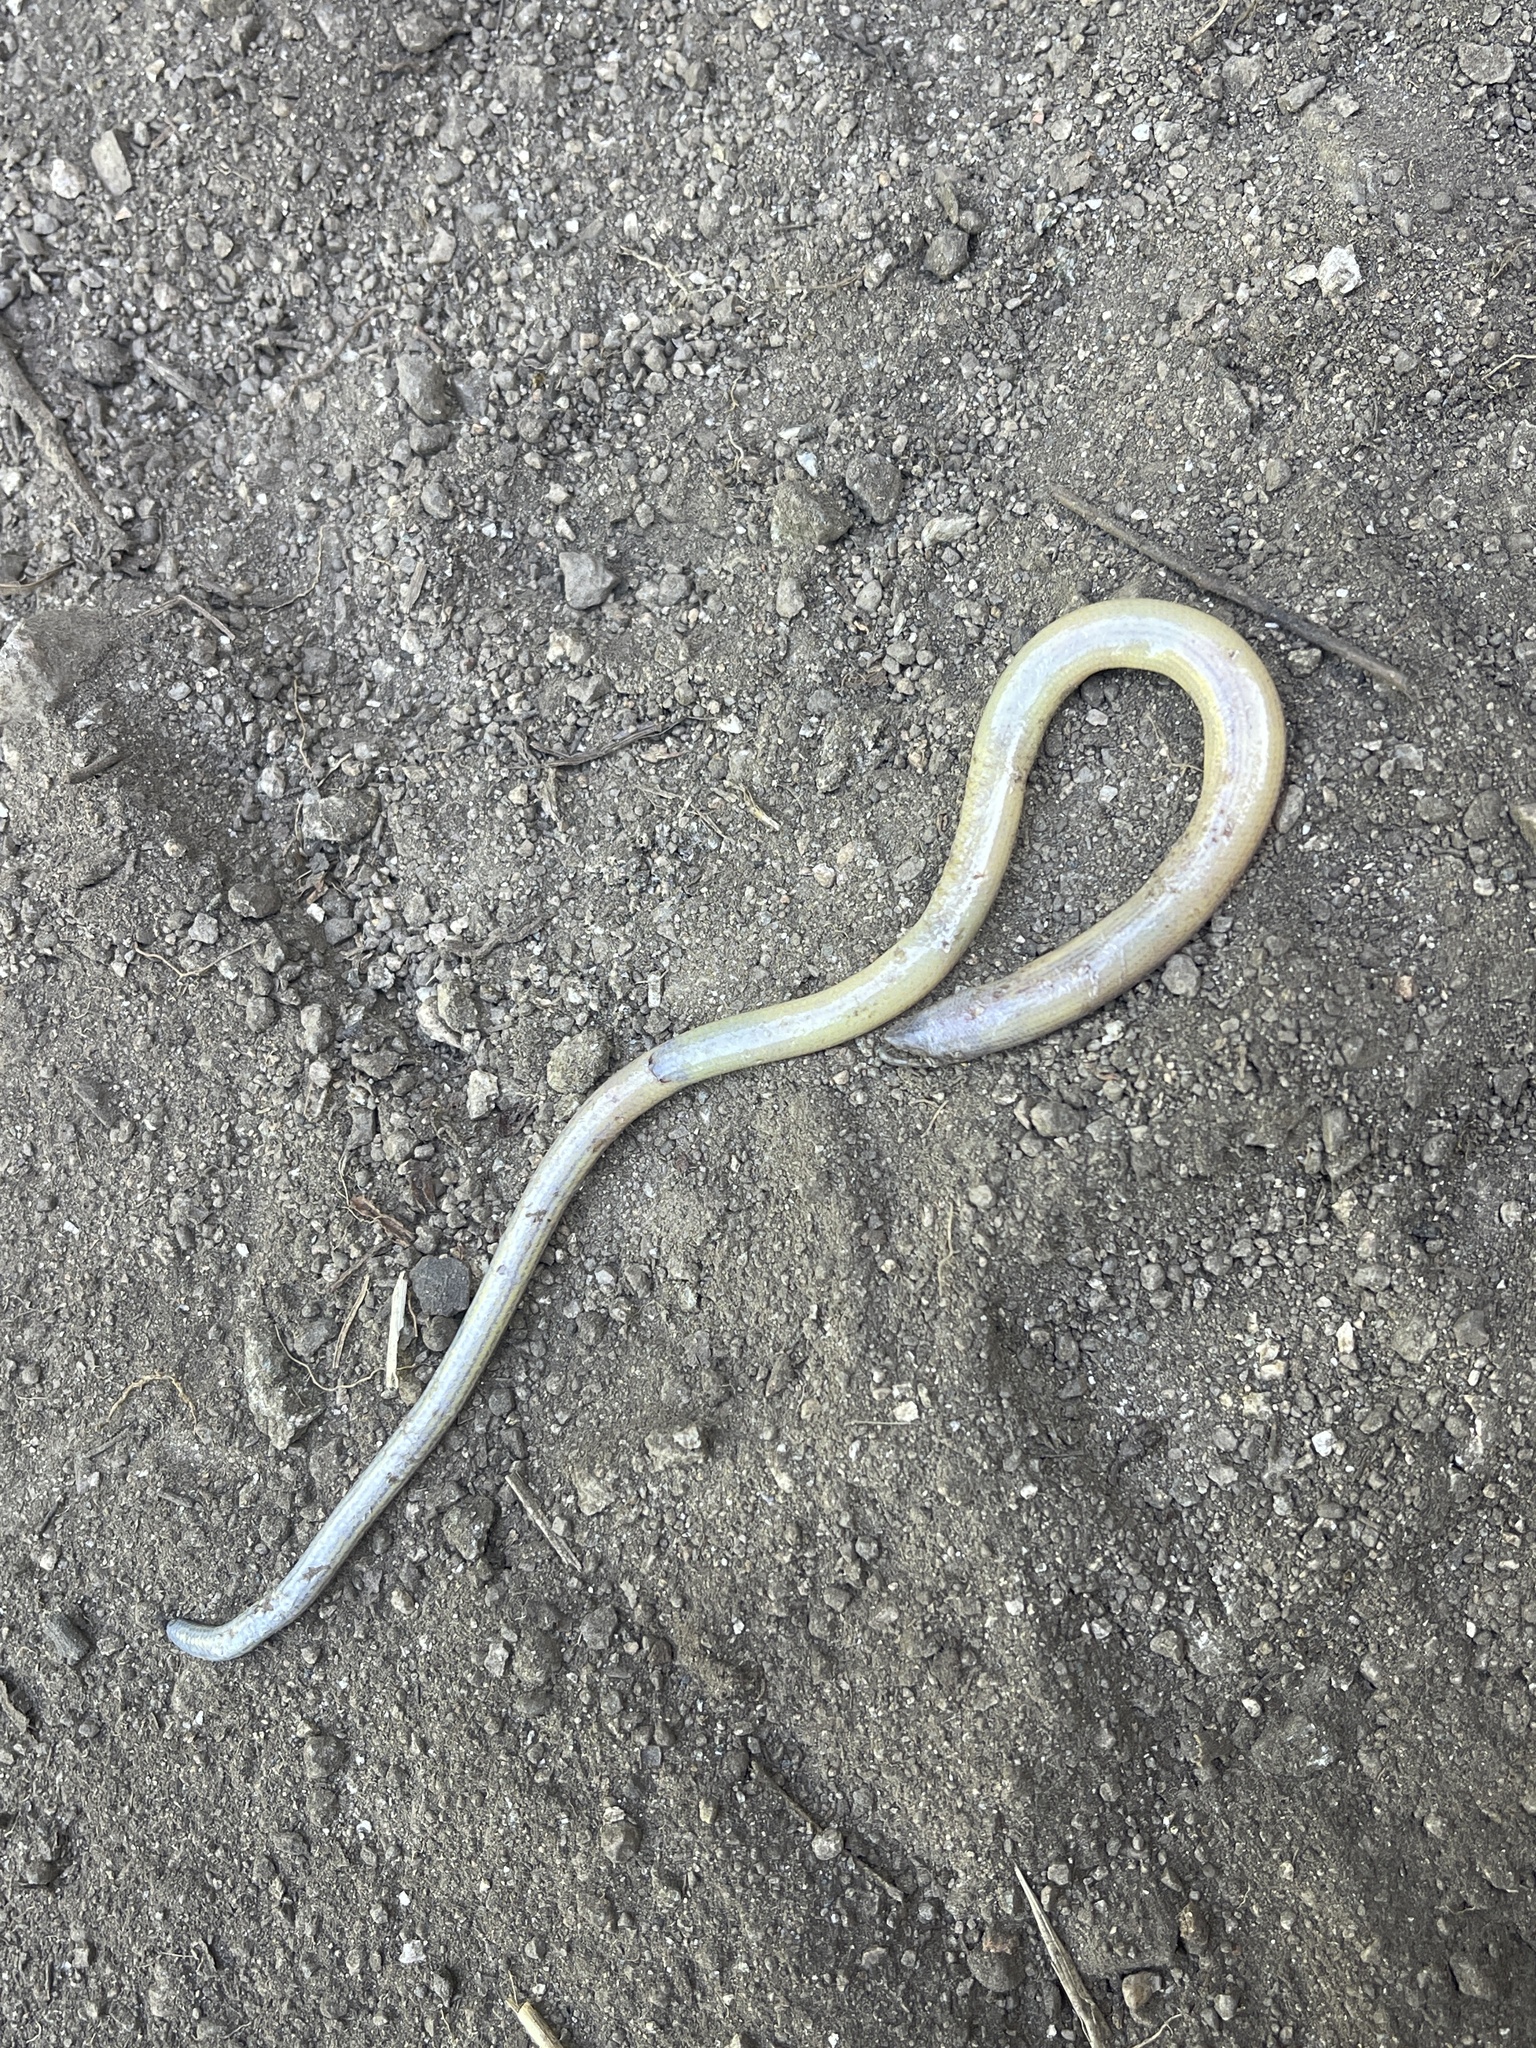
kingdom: Animalia
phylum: Chordata
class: Squamata
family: Anguidae
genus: Anniella
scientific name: Anniella stebbinsi
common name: Southern california legless lizard
